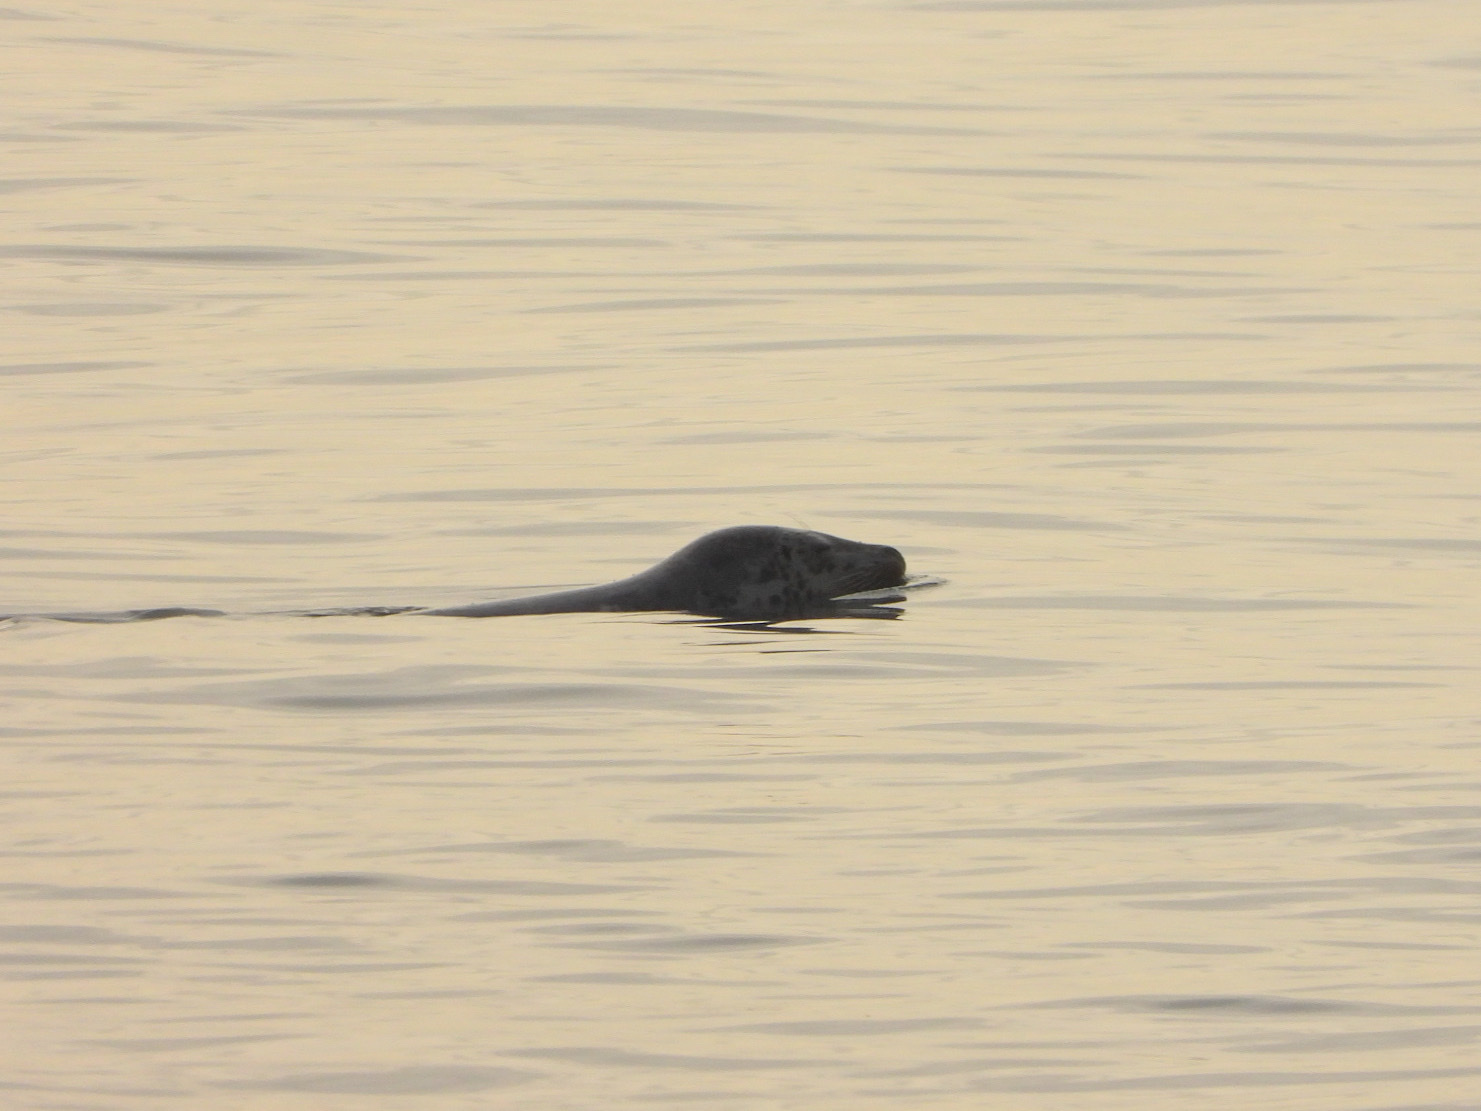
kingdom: Animalia
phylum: Chordata
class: Mammalia
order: Carnivora
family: Phocidae
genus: Phoca
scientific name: Phoca vitulina
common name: Harbor seal
